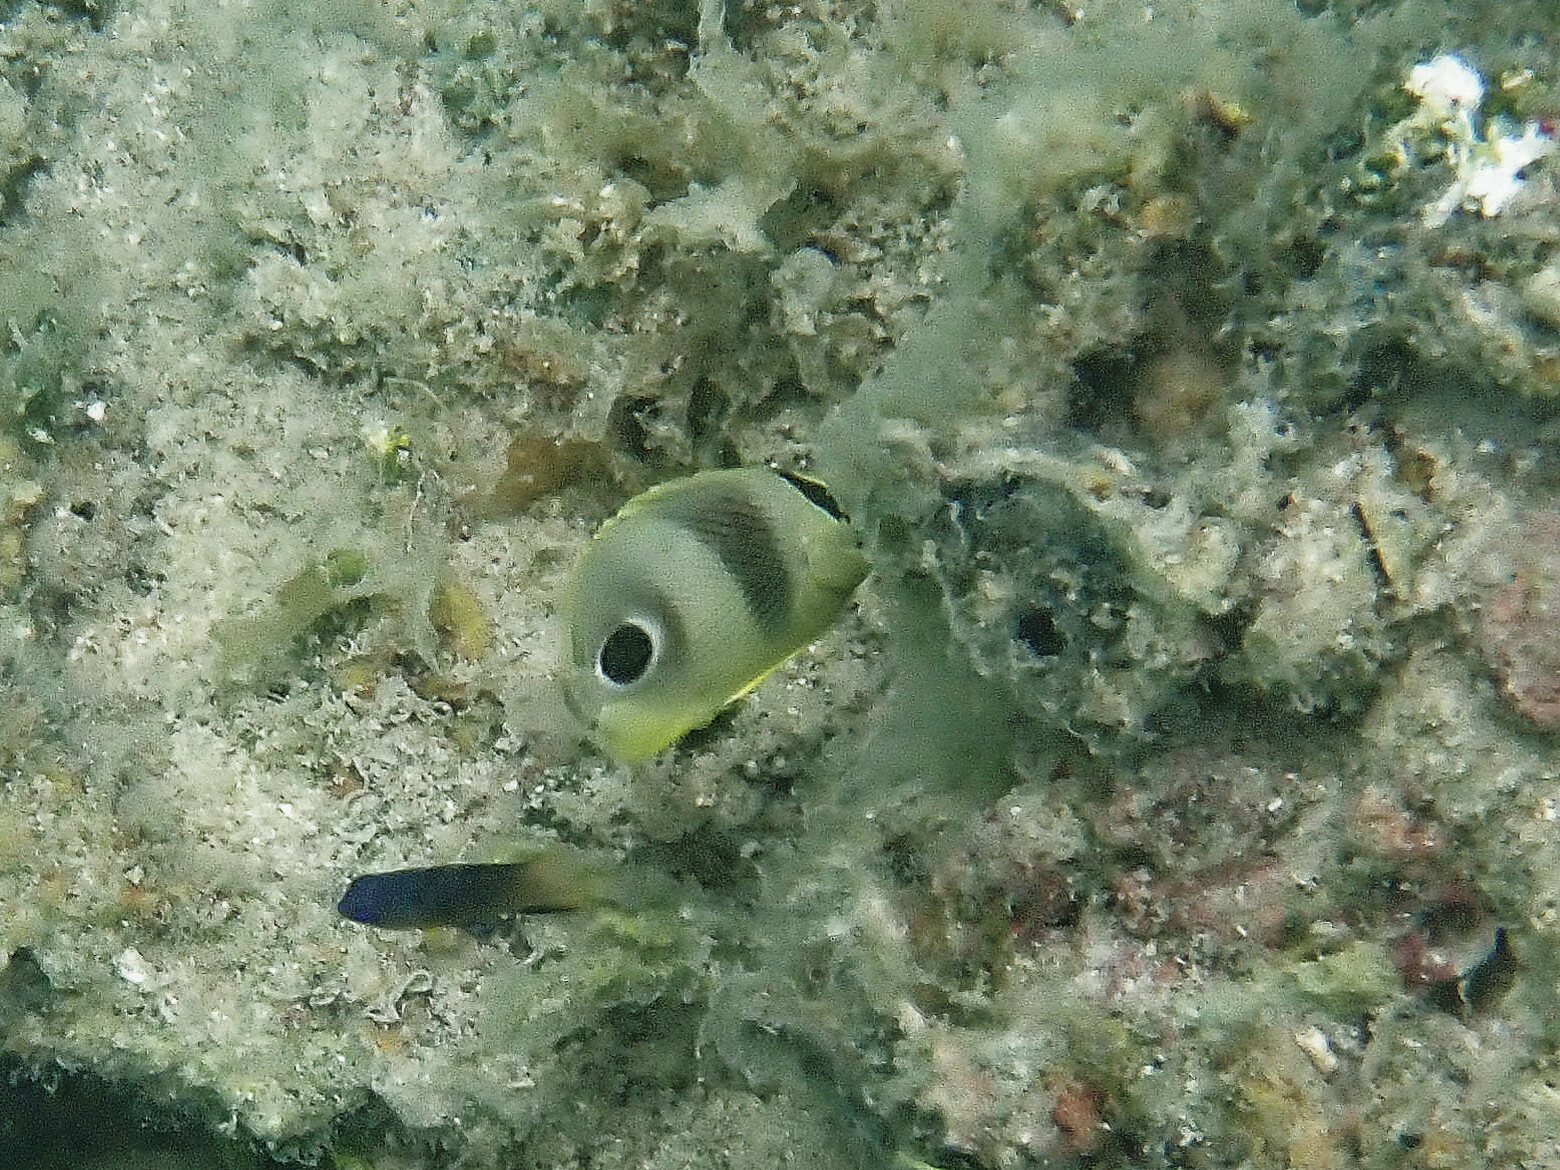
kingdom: Animalia
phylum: Chordata
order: Perciformes
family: Chaetodontidae
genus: Chaetodon
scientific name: Chaetodon capistratus
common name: Kete
